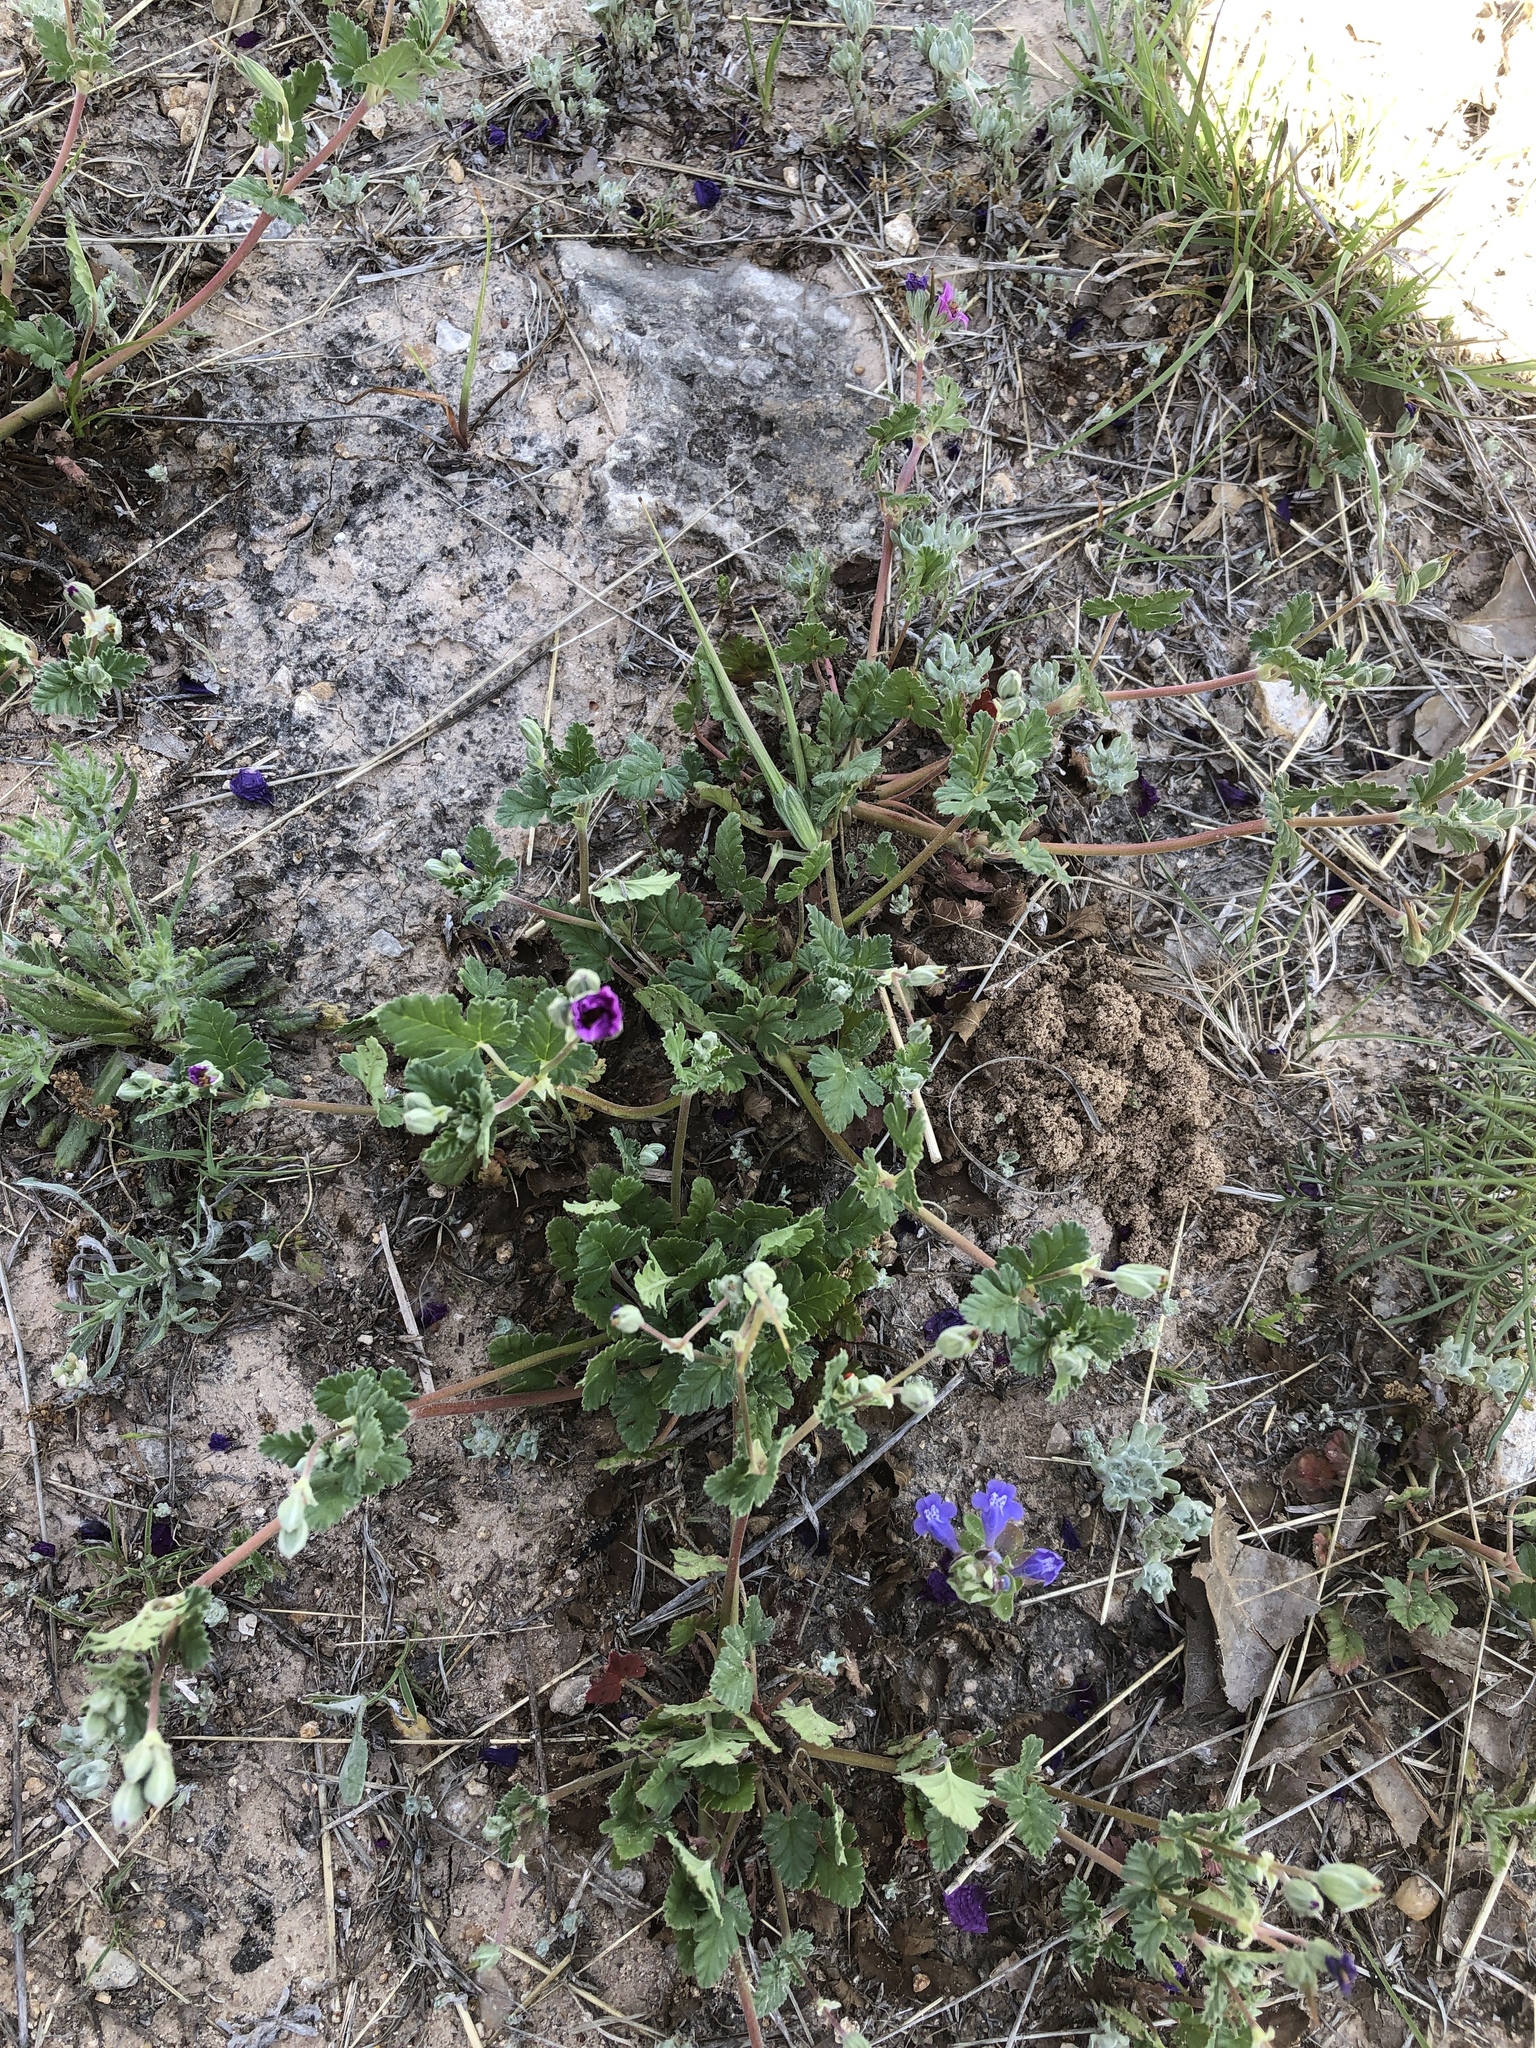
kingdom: Plantae
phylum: Tracheophyta
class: Magnoliopsida
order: Geraniales
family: Geraniaceae
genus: Erodium
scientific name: Erodium texanum
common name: Texas stork's-bill
